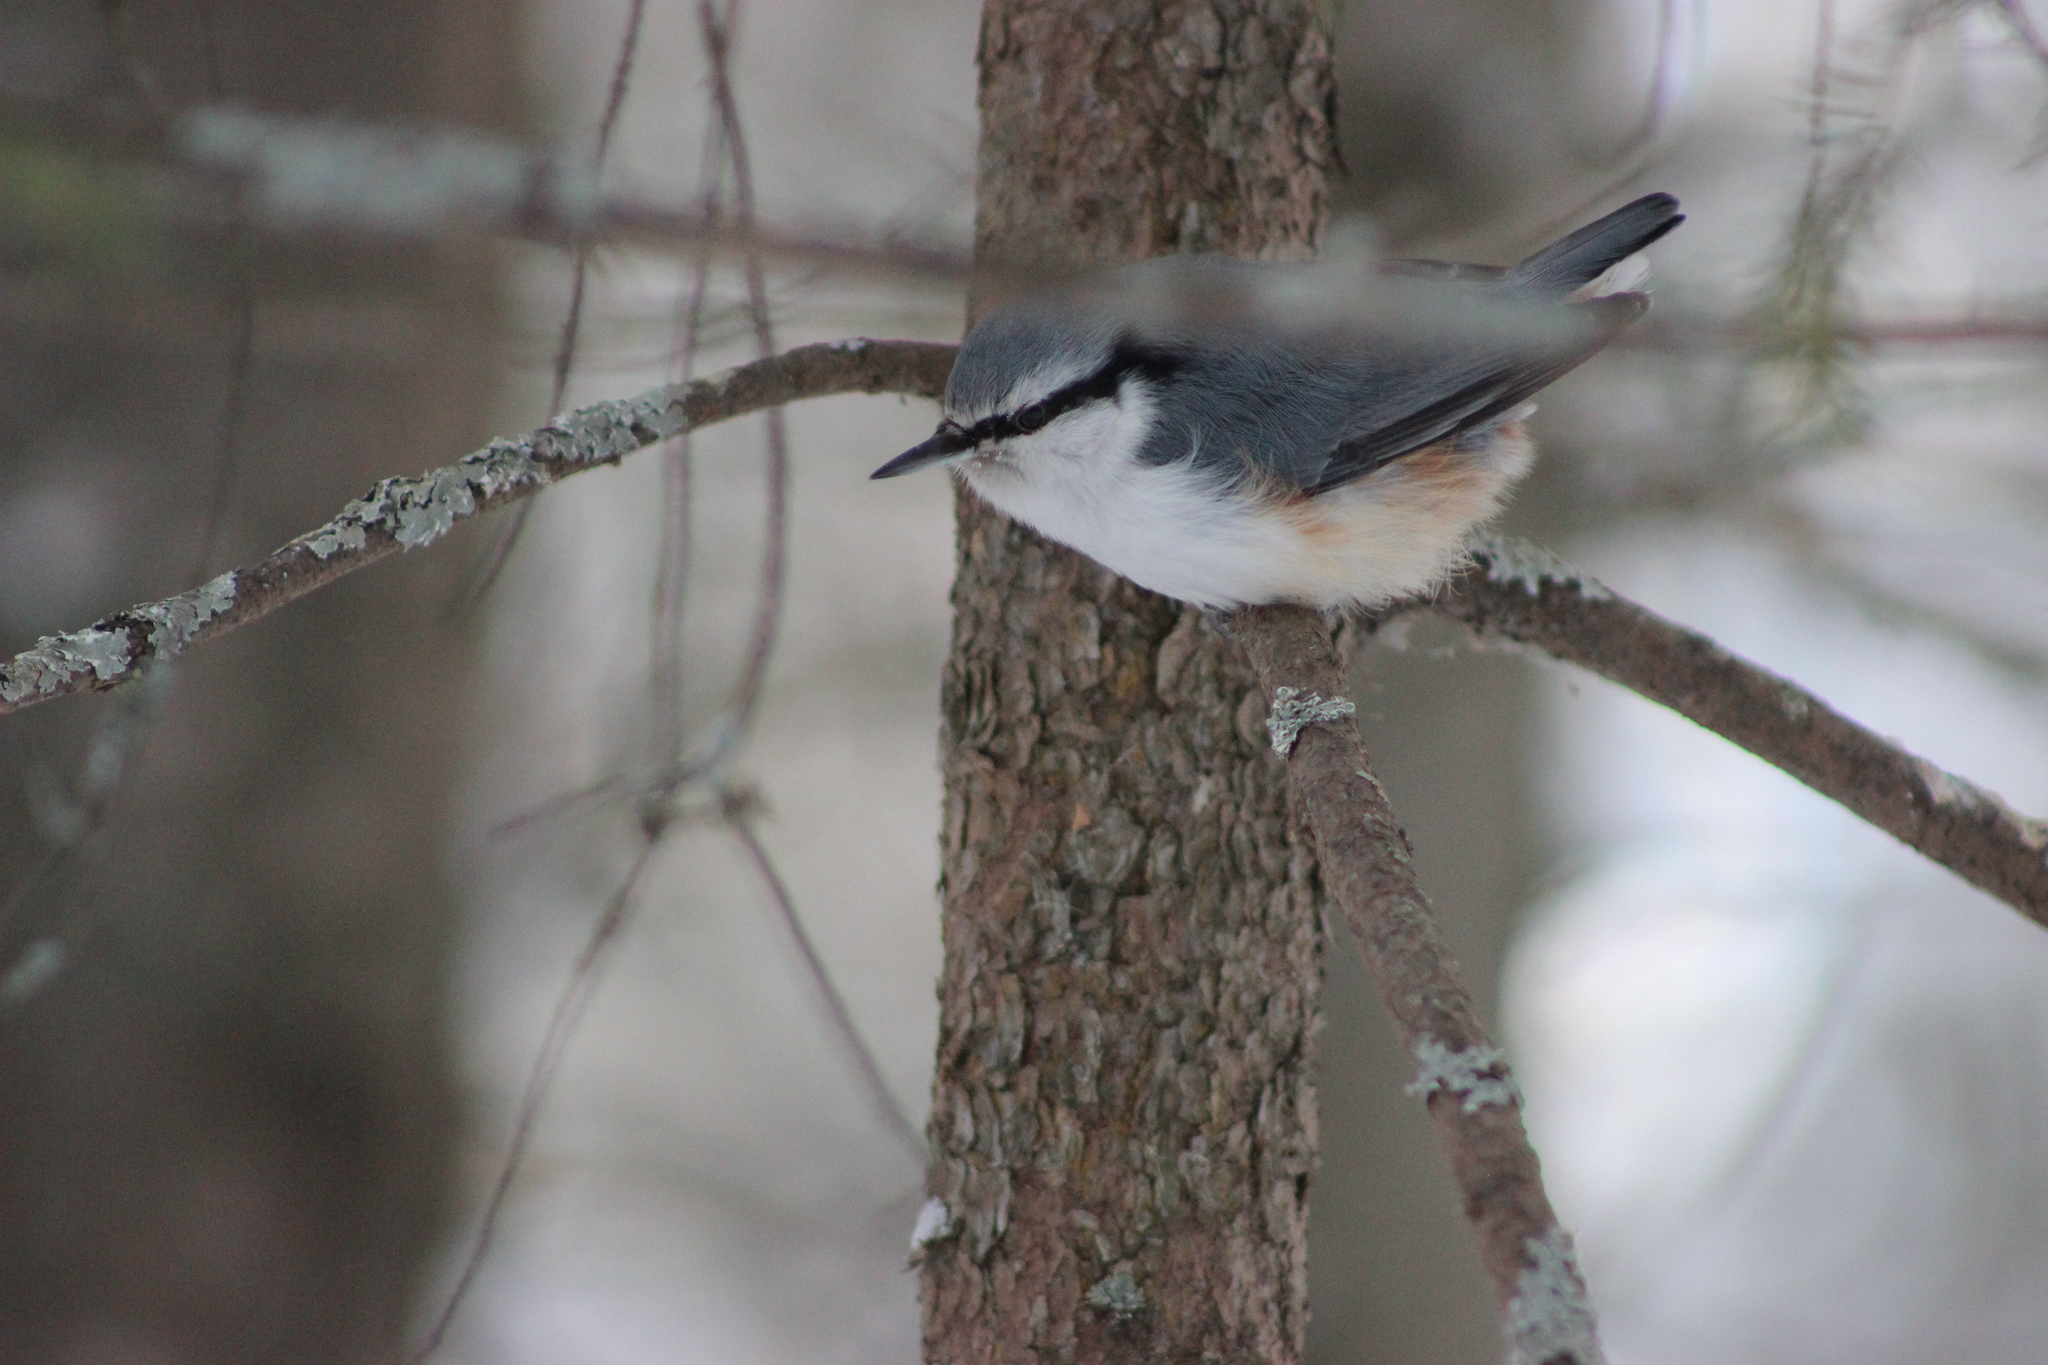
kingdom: Animalia
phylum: Chordata
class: Aves
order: Passeriformes
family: Sittidae
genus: Sitta
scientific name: Sitta europaea
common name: Eurasian nuthatch
